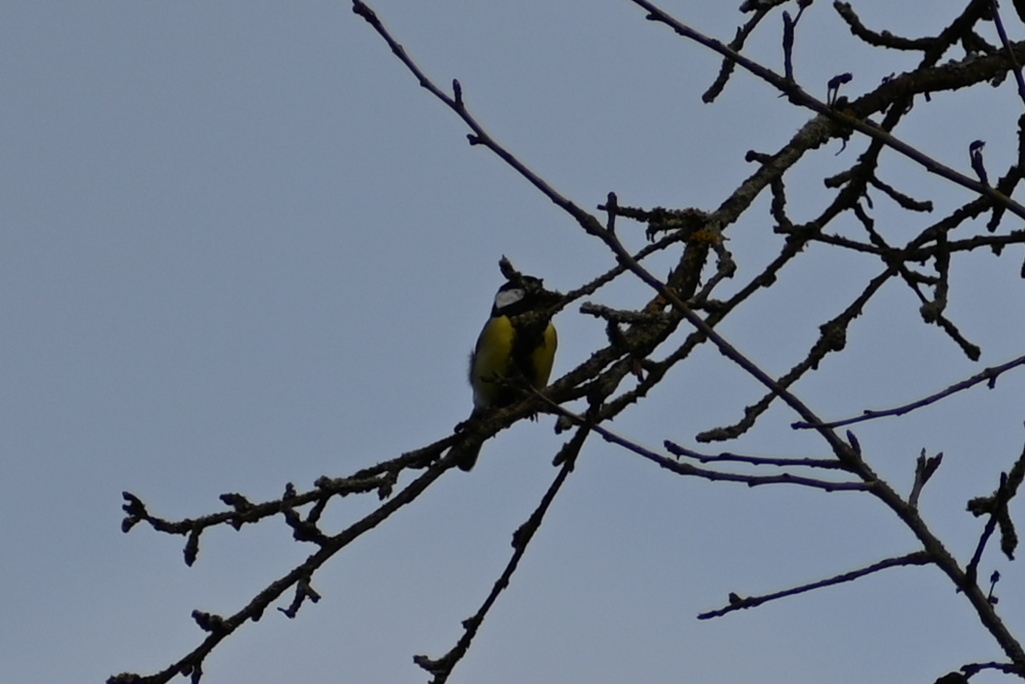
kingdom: Animalia
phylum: Chordata
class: Aves
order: Passeriformes
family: Paridae
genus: Parus
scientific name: Parus major
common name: Great tit
